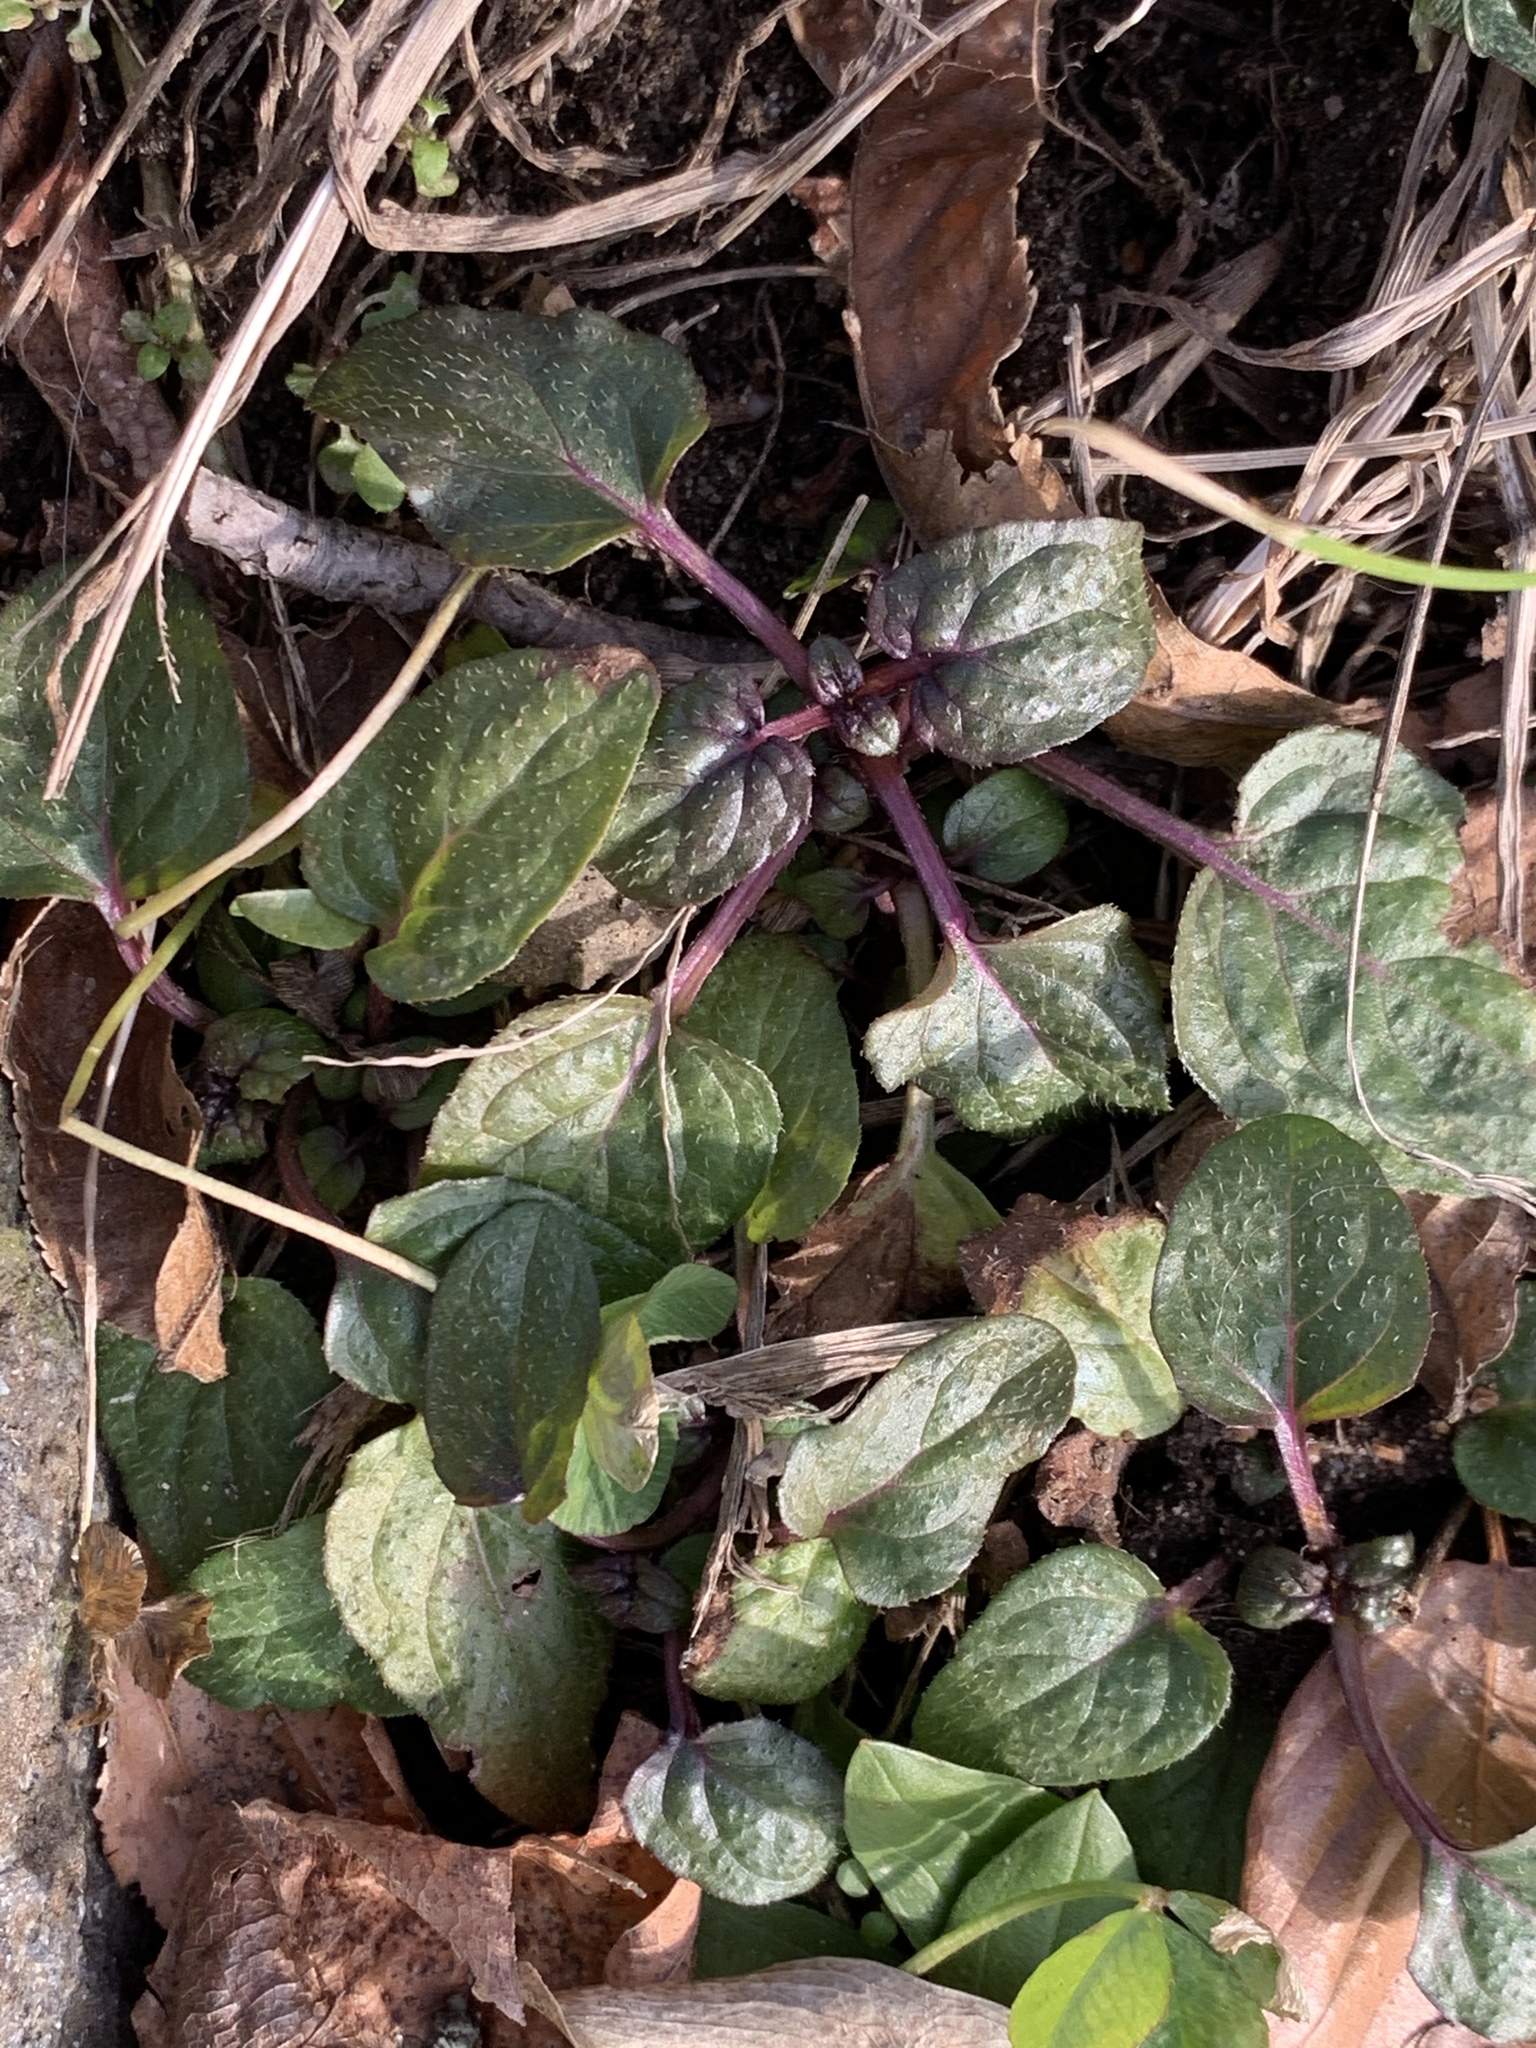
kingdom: Plantae
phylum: Tracheophyta
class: Magnoliopsida
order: Lamiales
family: Lamiaceae
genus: Prunella
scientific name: Prunella vulgaris
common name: Heal-all
